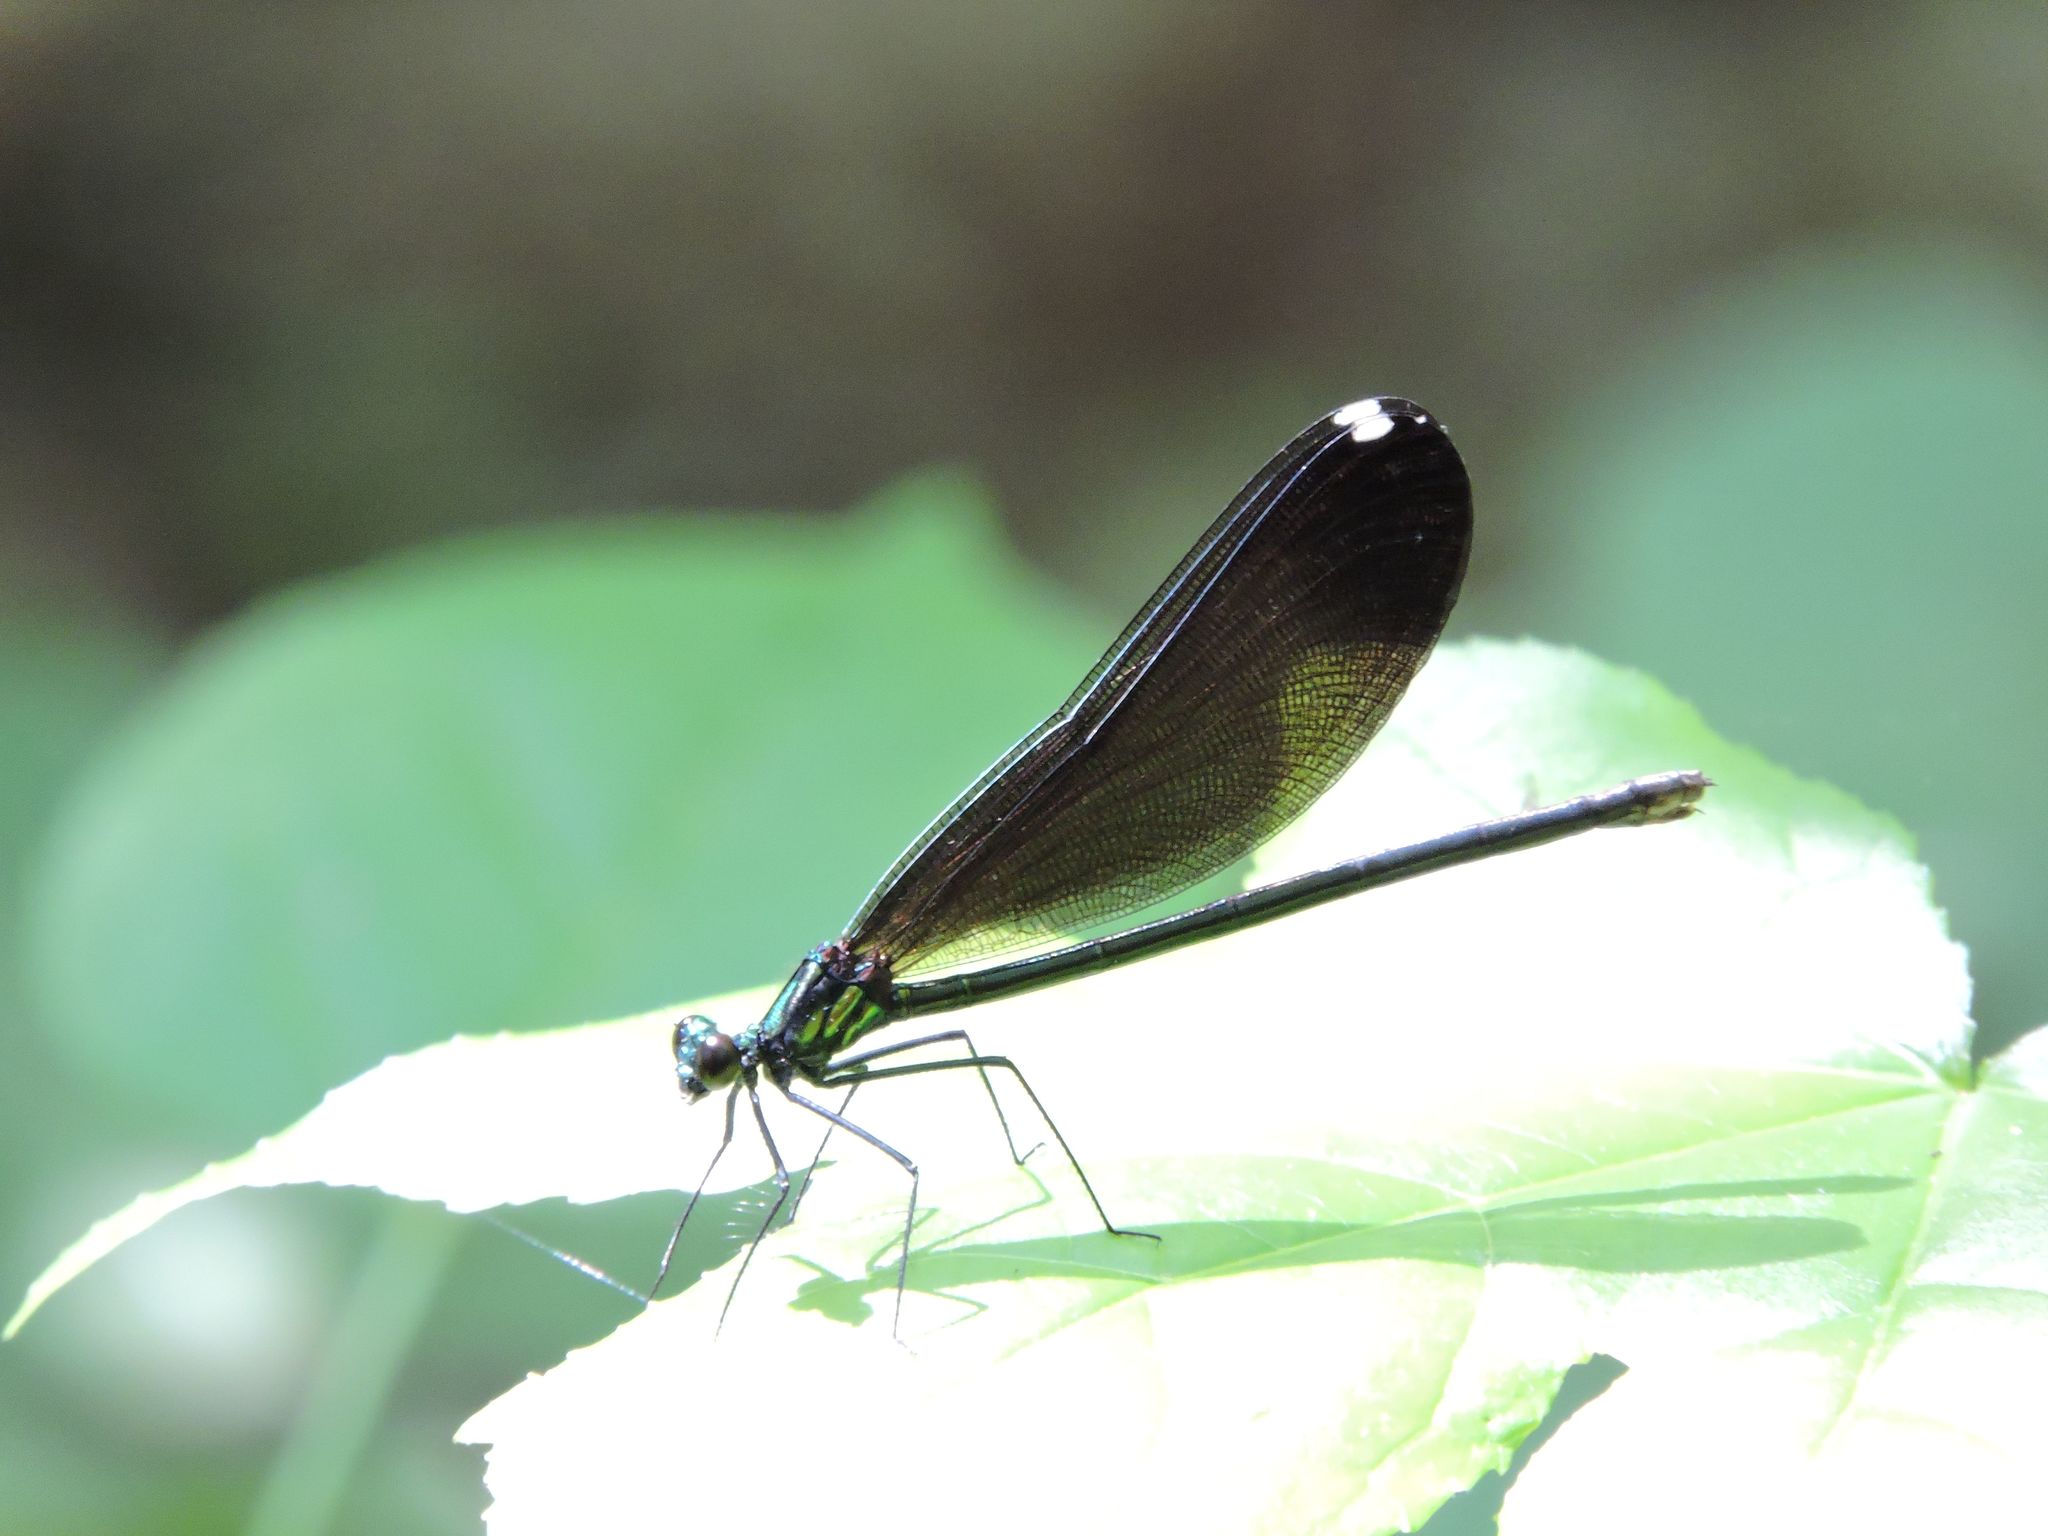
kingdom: Animalia
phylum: Arthropoda
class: Insecta
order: Odonata
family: Calopterygidae
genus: Calopteryx
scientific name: Calopteryx maculata
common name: Ebony jewelwing
